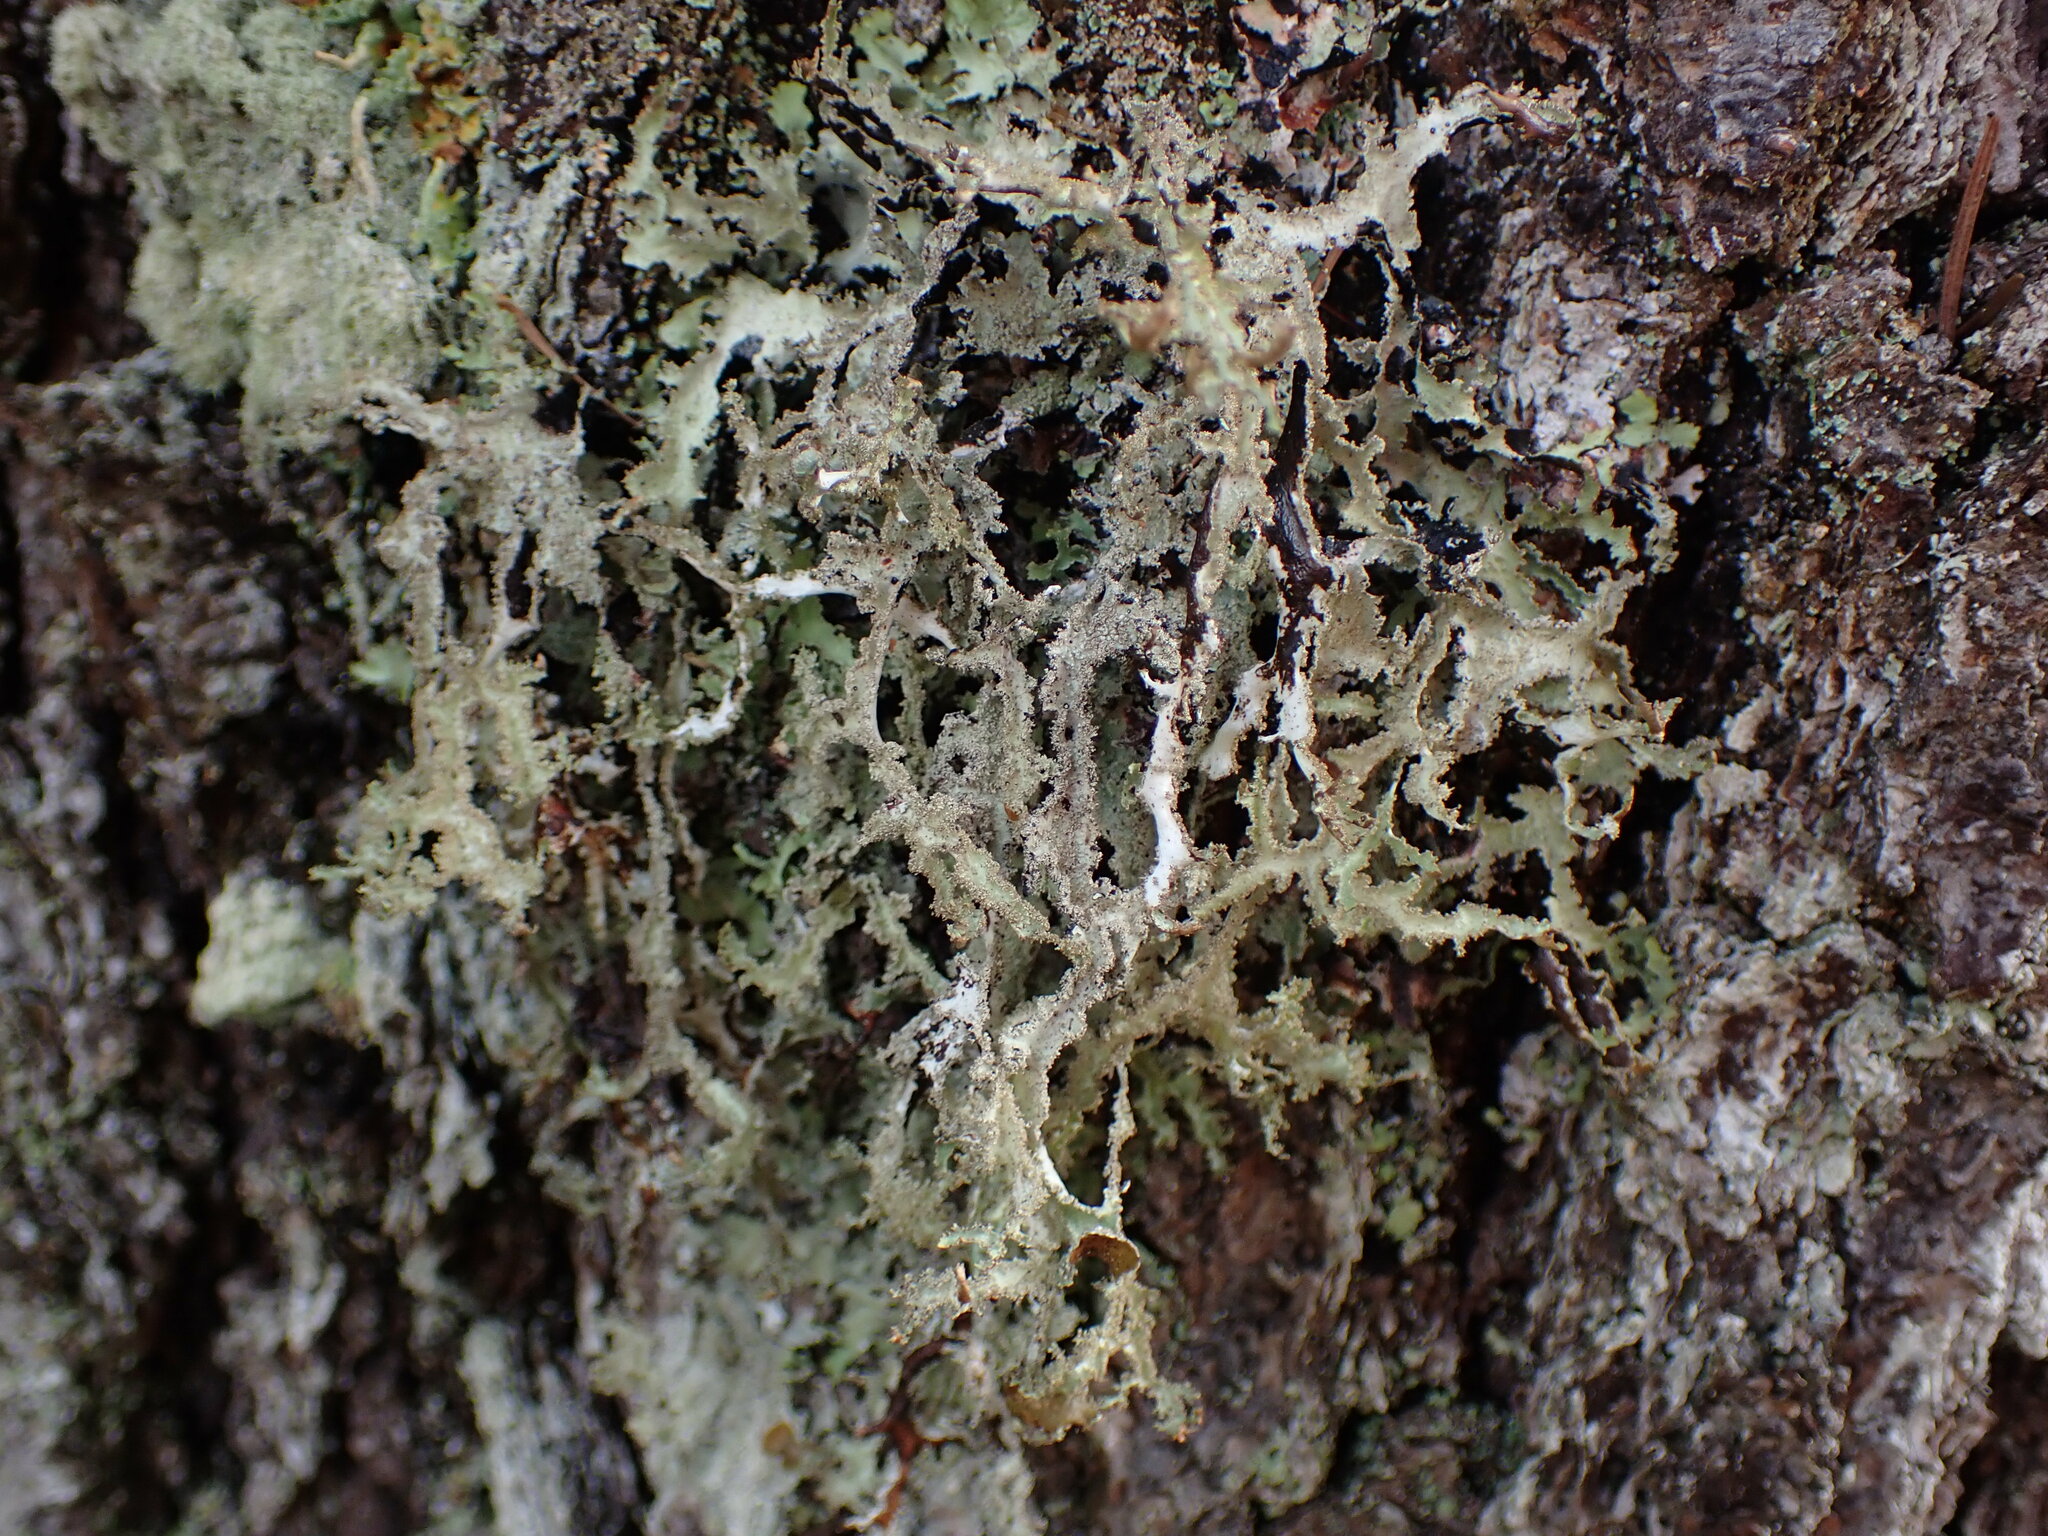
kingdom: Fungi
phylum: Ascomycota
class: Lecanoromycetes
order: Lecanorales
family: Parmeliaceae
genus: Platismatia
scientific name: Platismatia herrei
